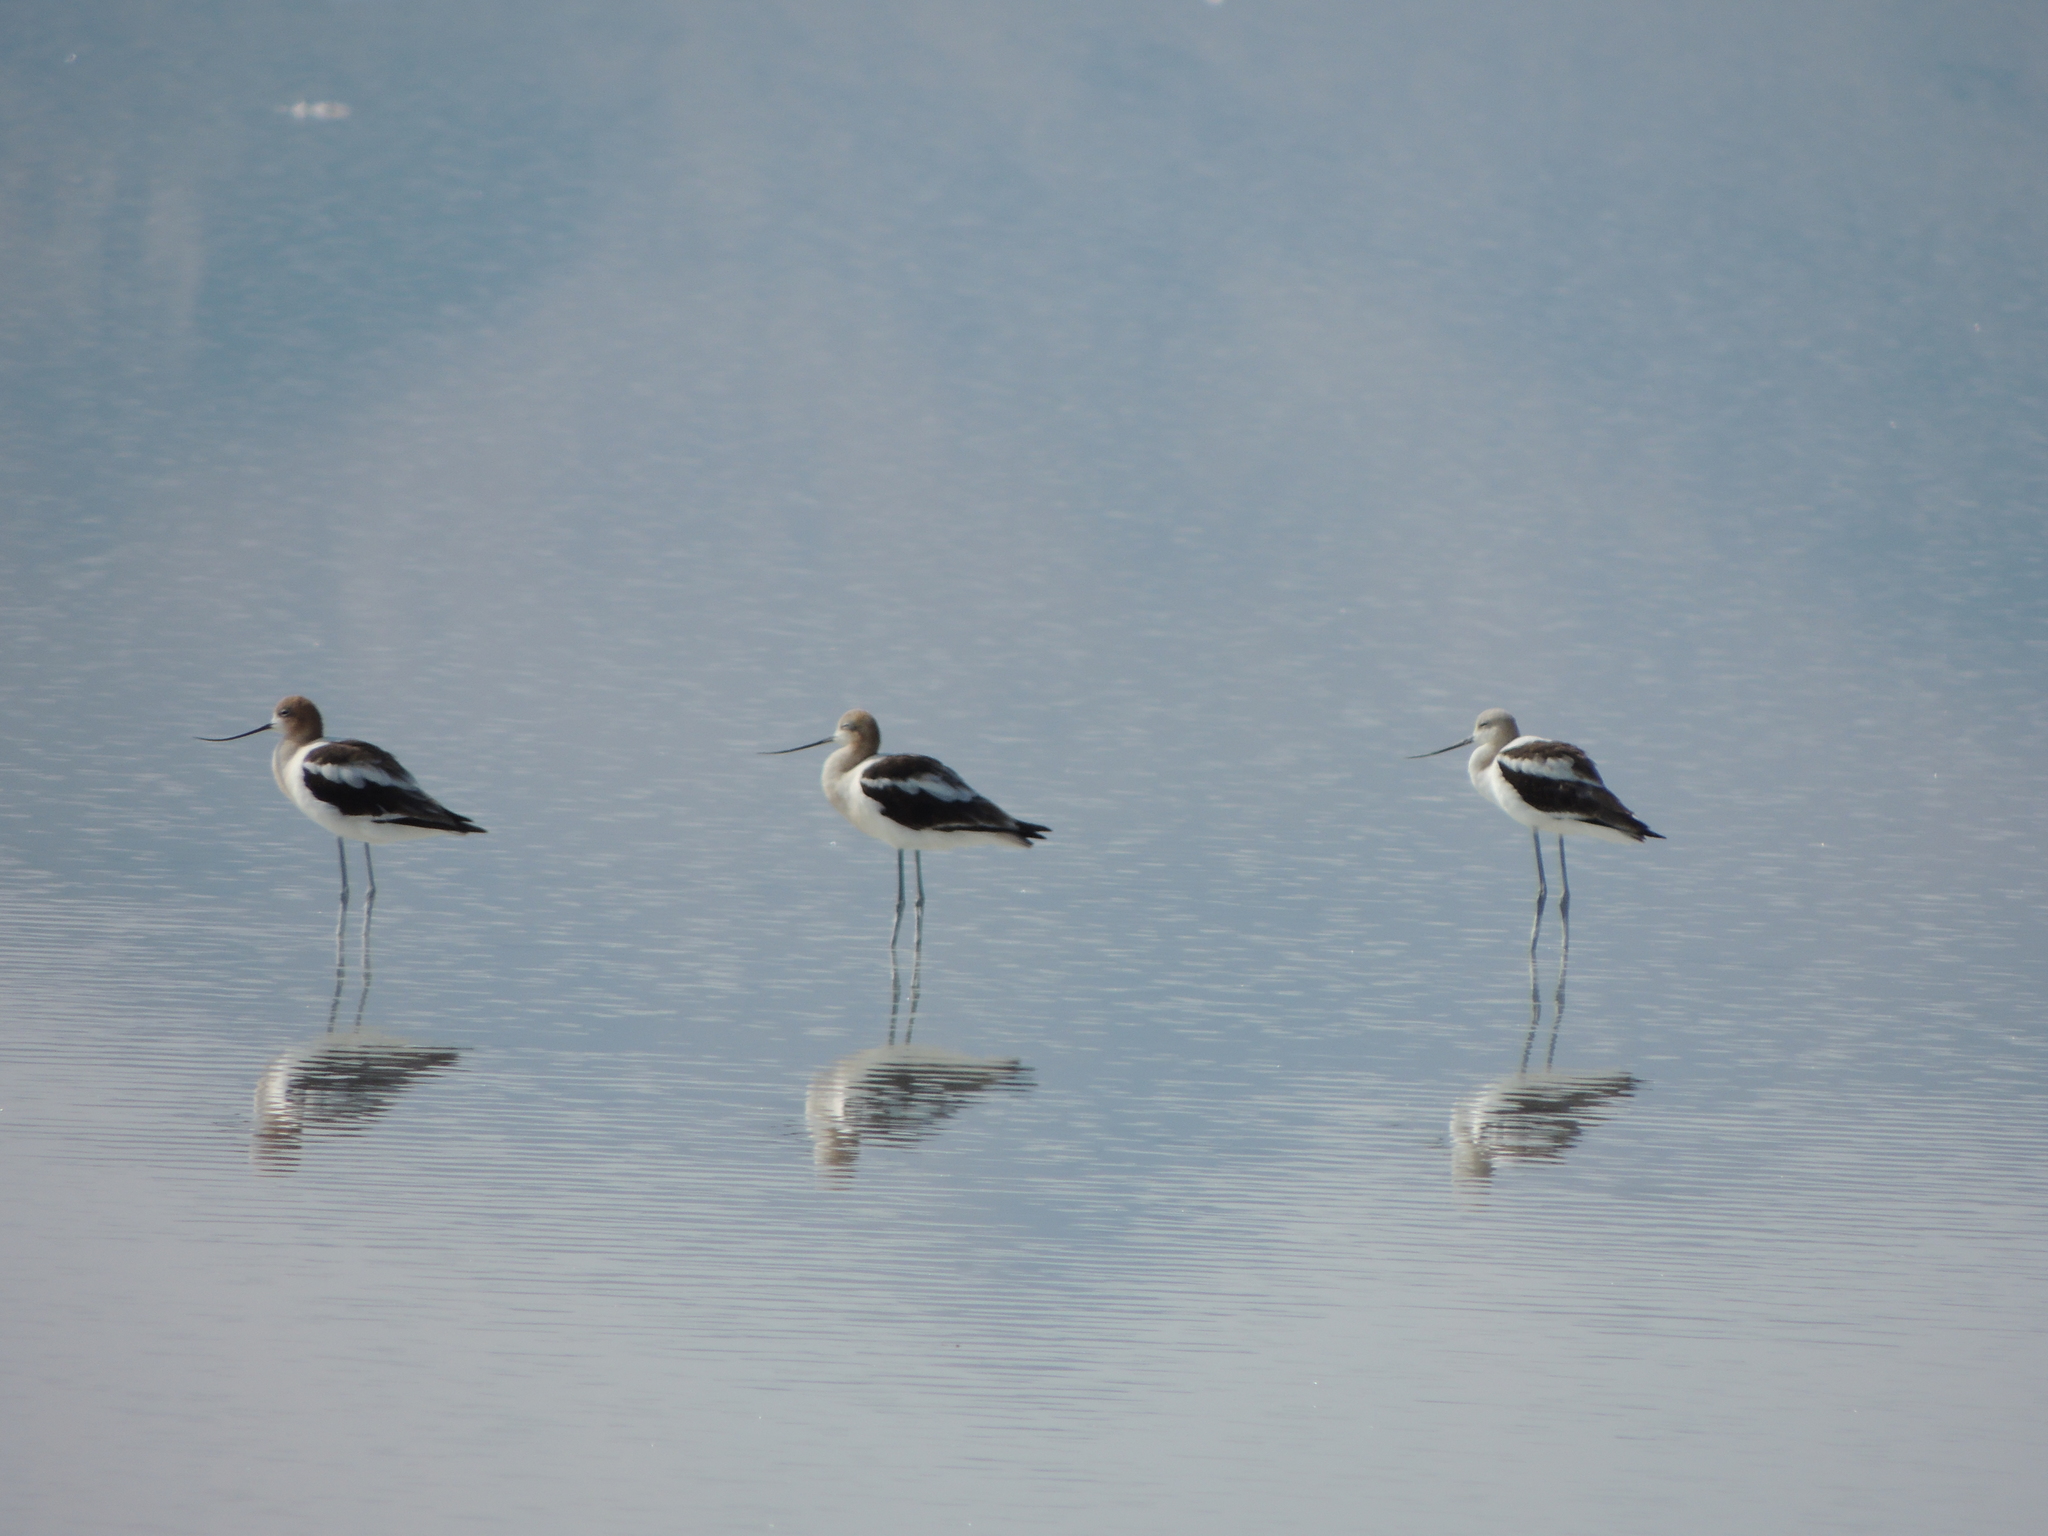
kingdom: Animalia
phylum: Chordata
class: Aves
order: Charadriiformes
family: Recurvirostridae
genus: Recurvirostra
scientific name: Recurvirostra americana
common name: American avocet
